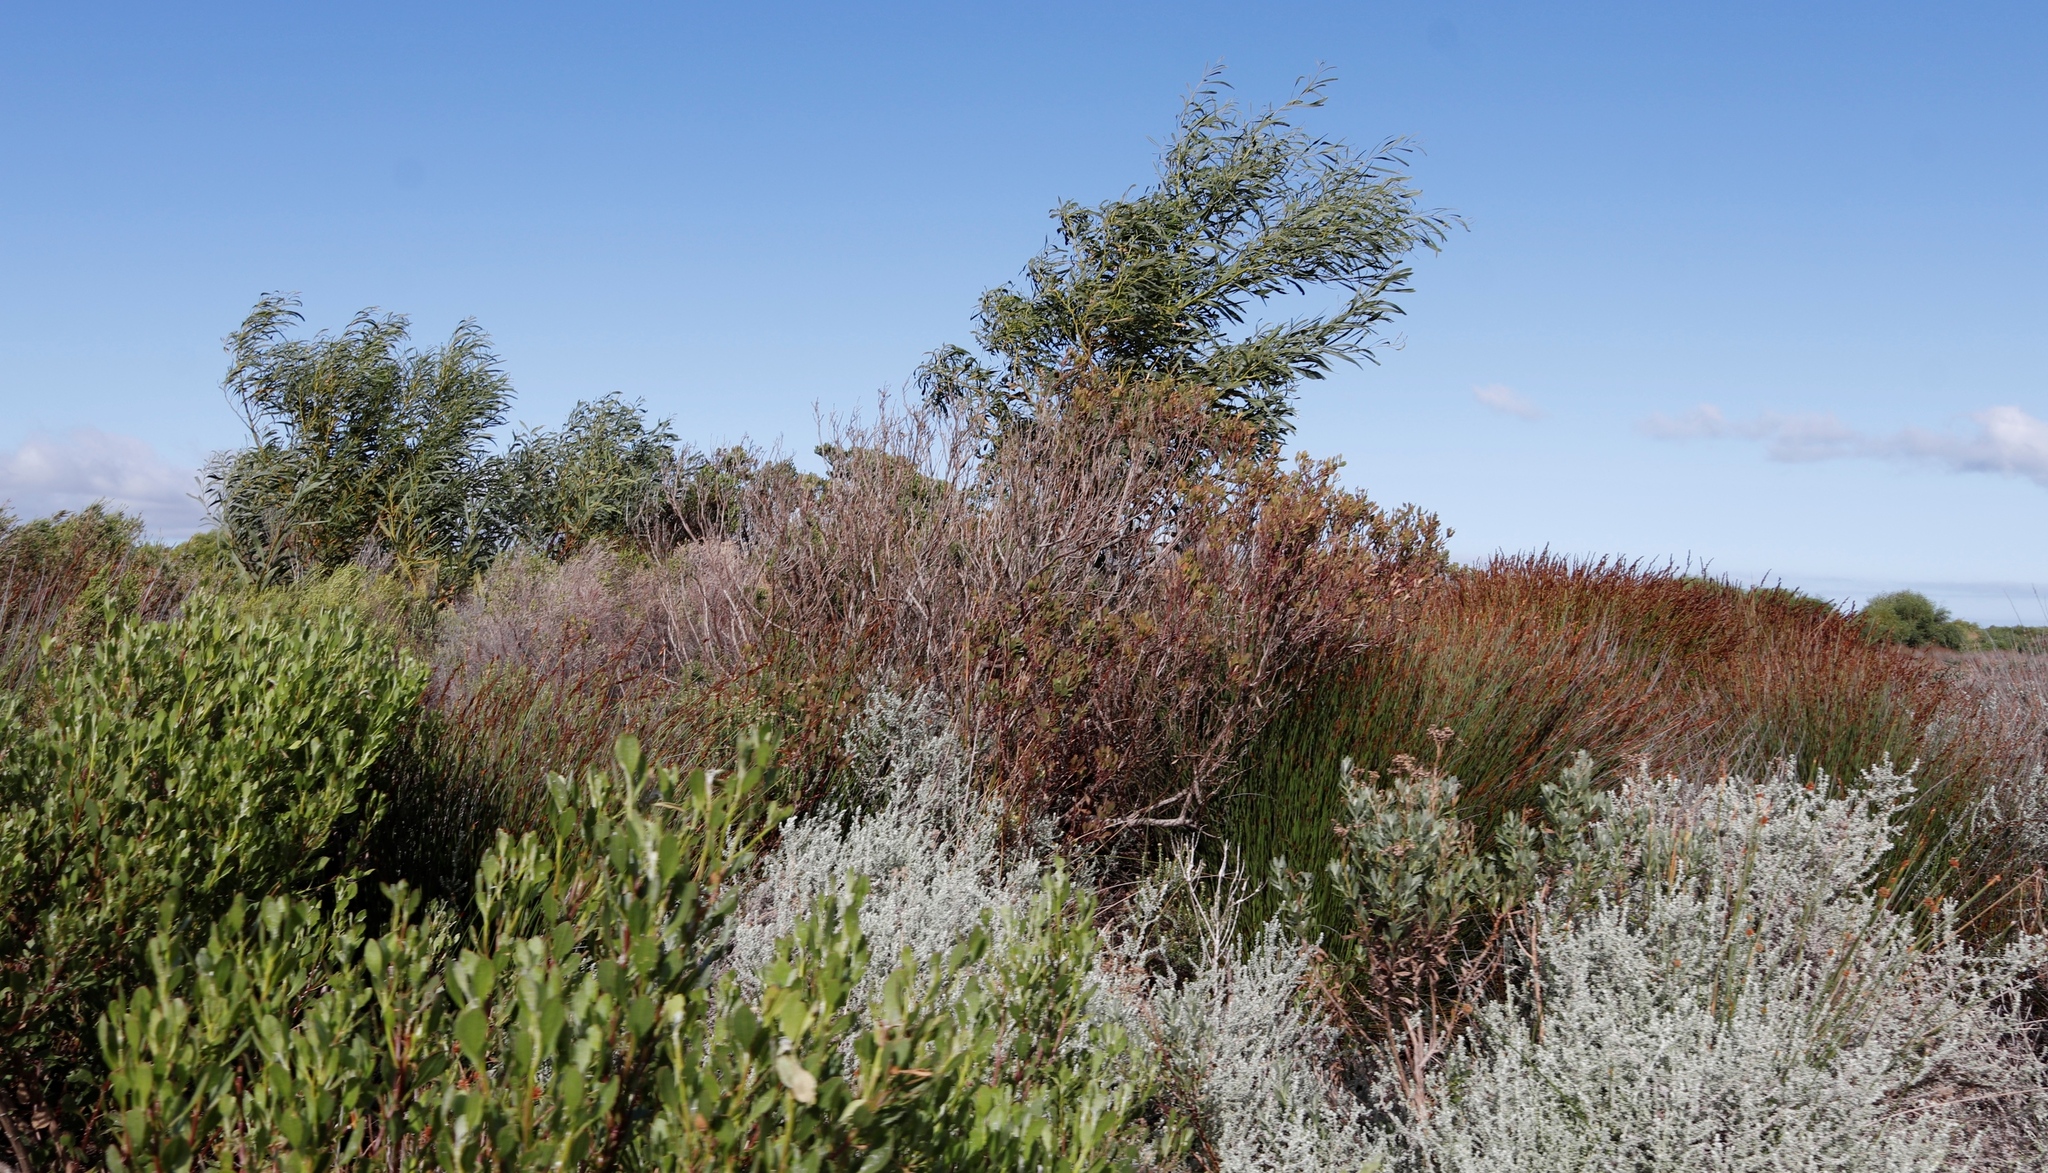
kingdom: Plantae
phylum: Tracheophyta
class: Magnoliopsida
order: Asterales
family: Asteraceae
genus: Osteospermum
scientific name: Osteospermum moniliferum
